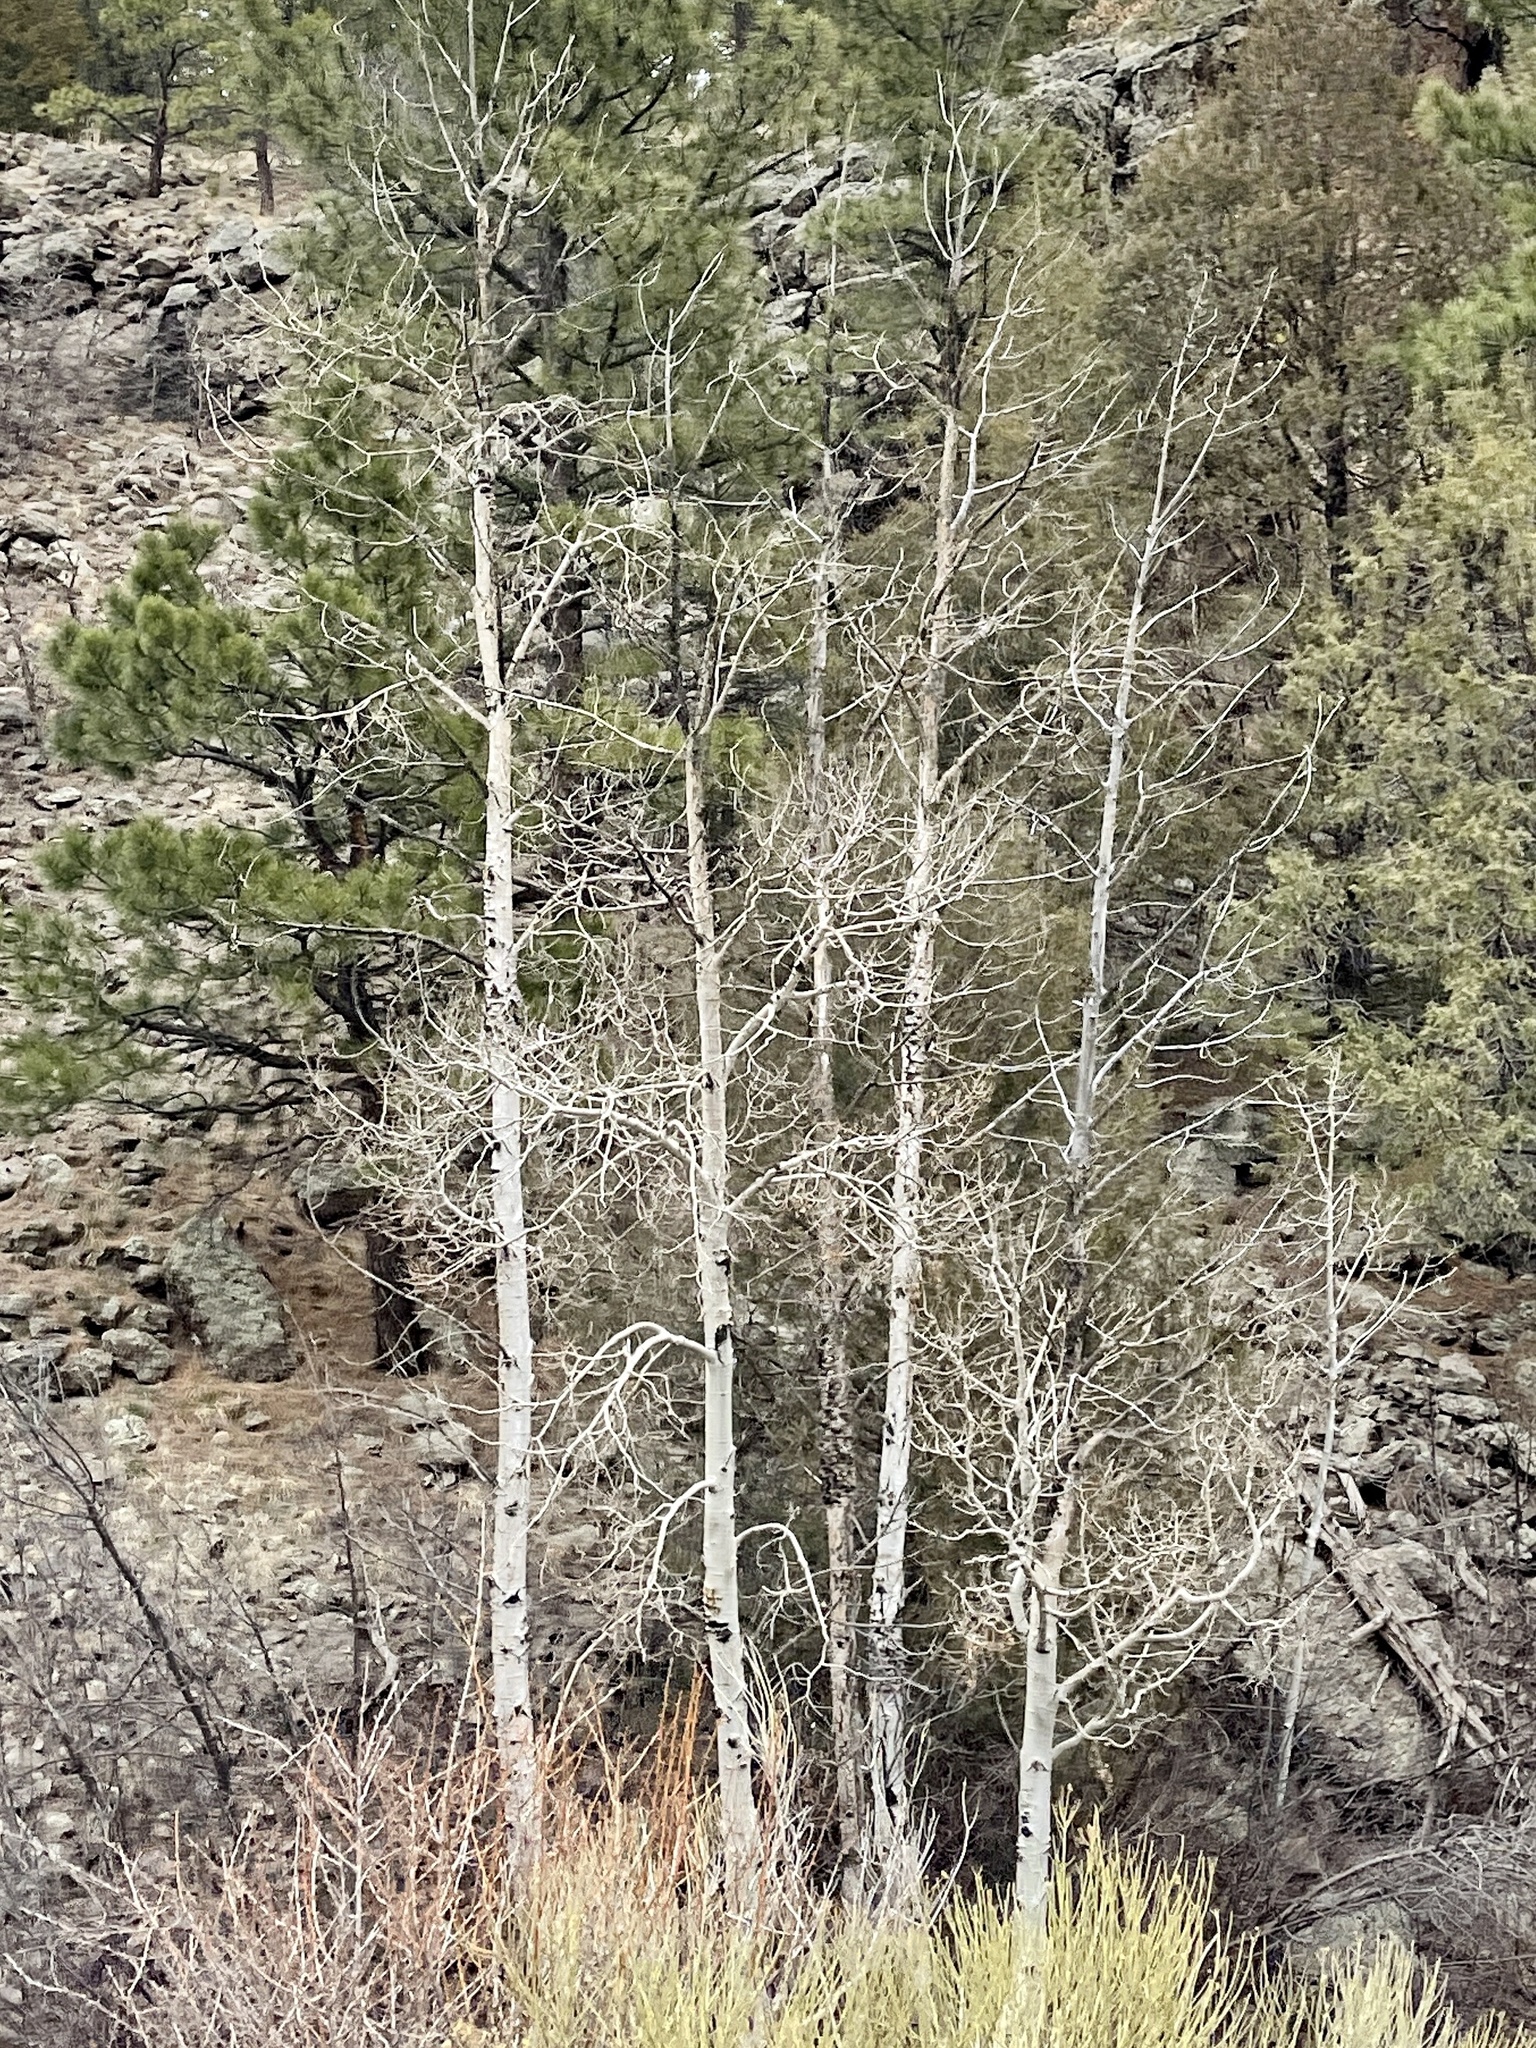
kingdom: Plantae
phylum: Tracheophyta
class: Magnoliopsida
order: Malpighiales
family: Salicaceae
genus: Populus
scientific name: Populus tremuloides
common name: Quaking aspen
